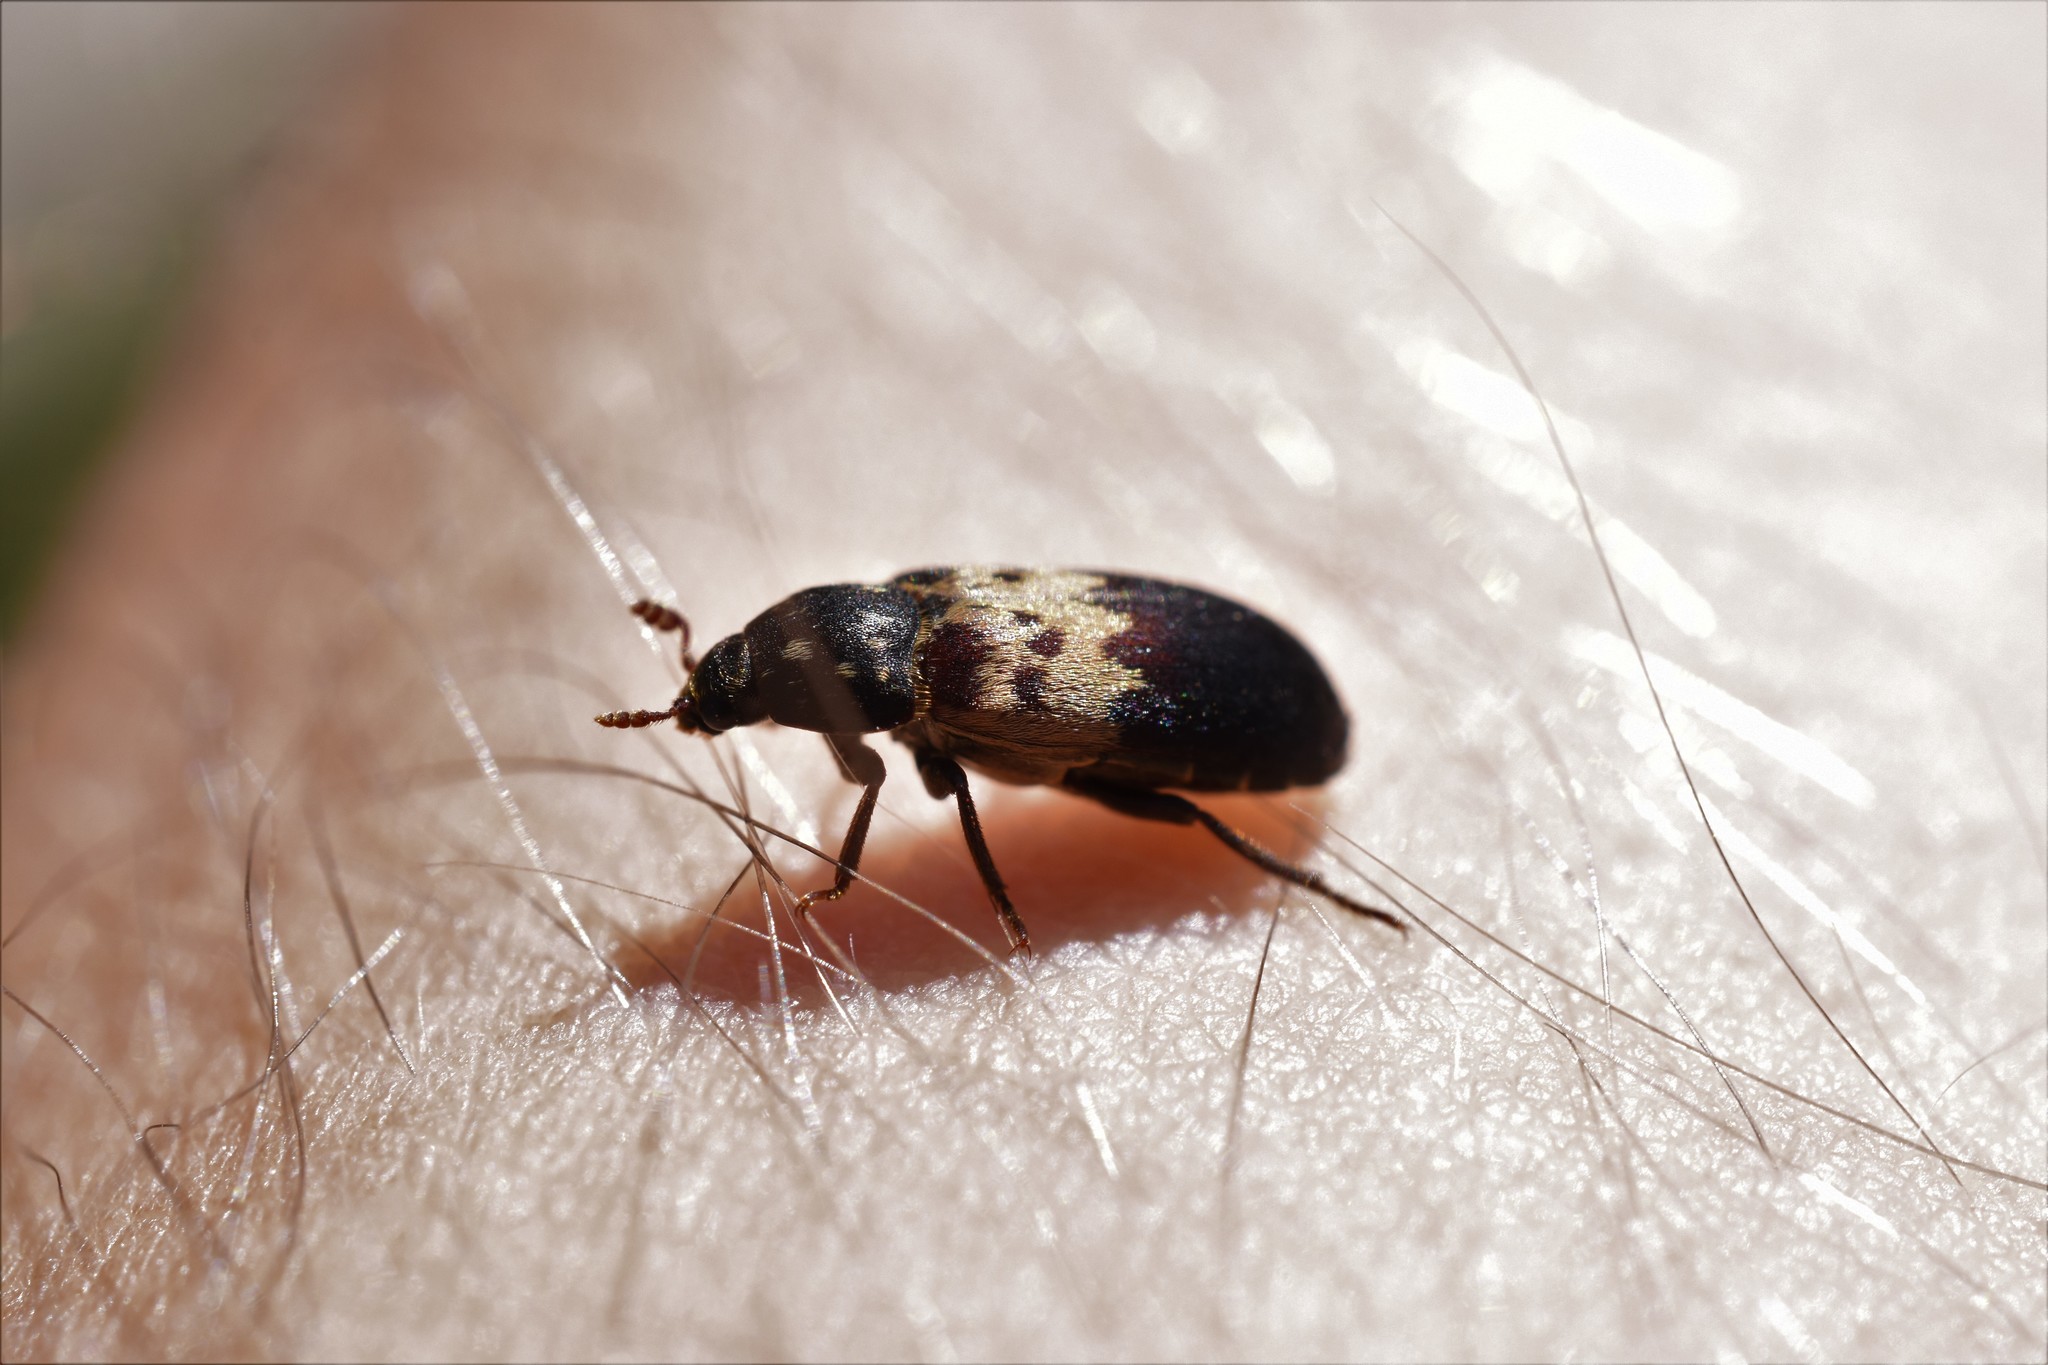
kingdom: Animalia
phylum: Arthropoda
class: Insecta
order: Coleoptera
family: Dermestidae
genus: Dermestes
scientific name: Dermestes lardarius
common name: Larder beetle
